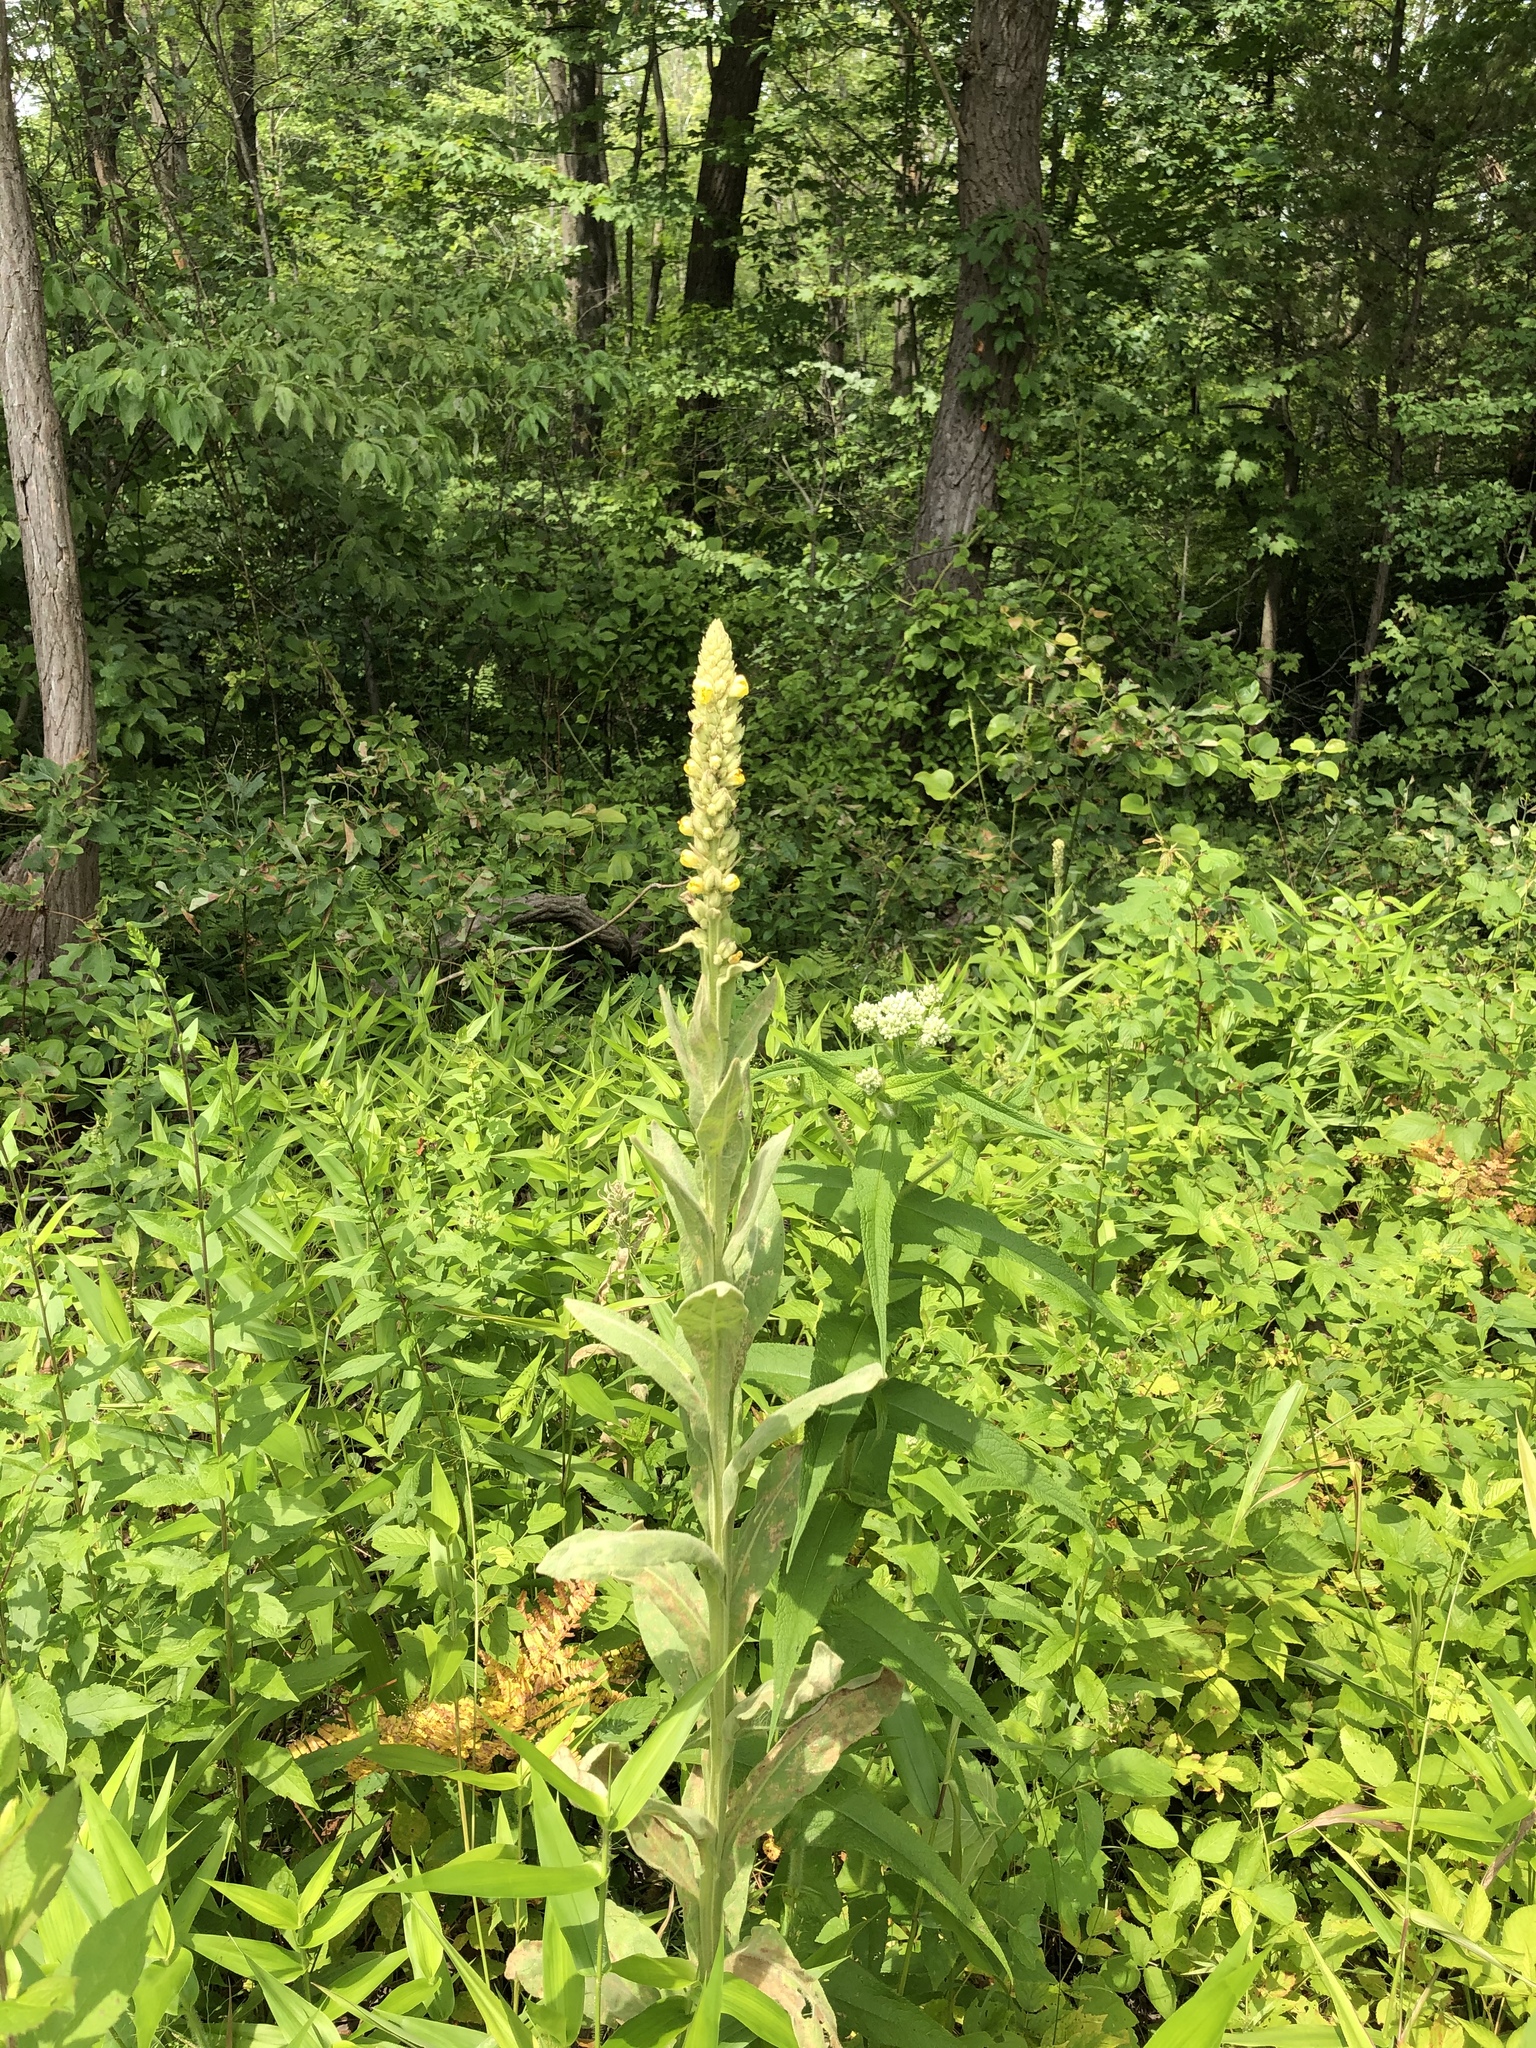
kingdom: Plantae
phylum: Tracheophyta
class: Magnoliopsida
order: Lamiales
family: Scrophulariaceae
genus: Verbascum
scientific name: Verbascum thapsus
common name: Common mullein
